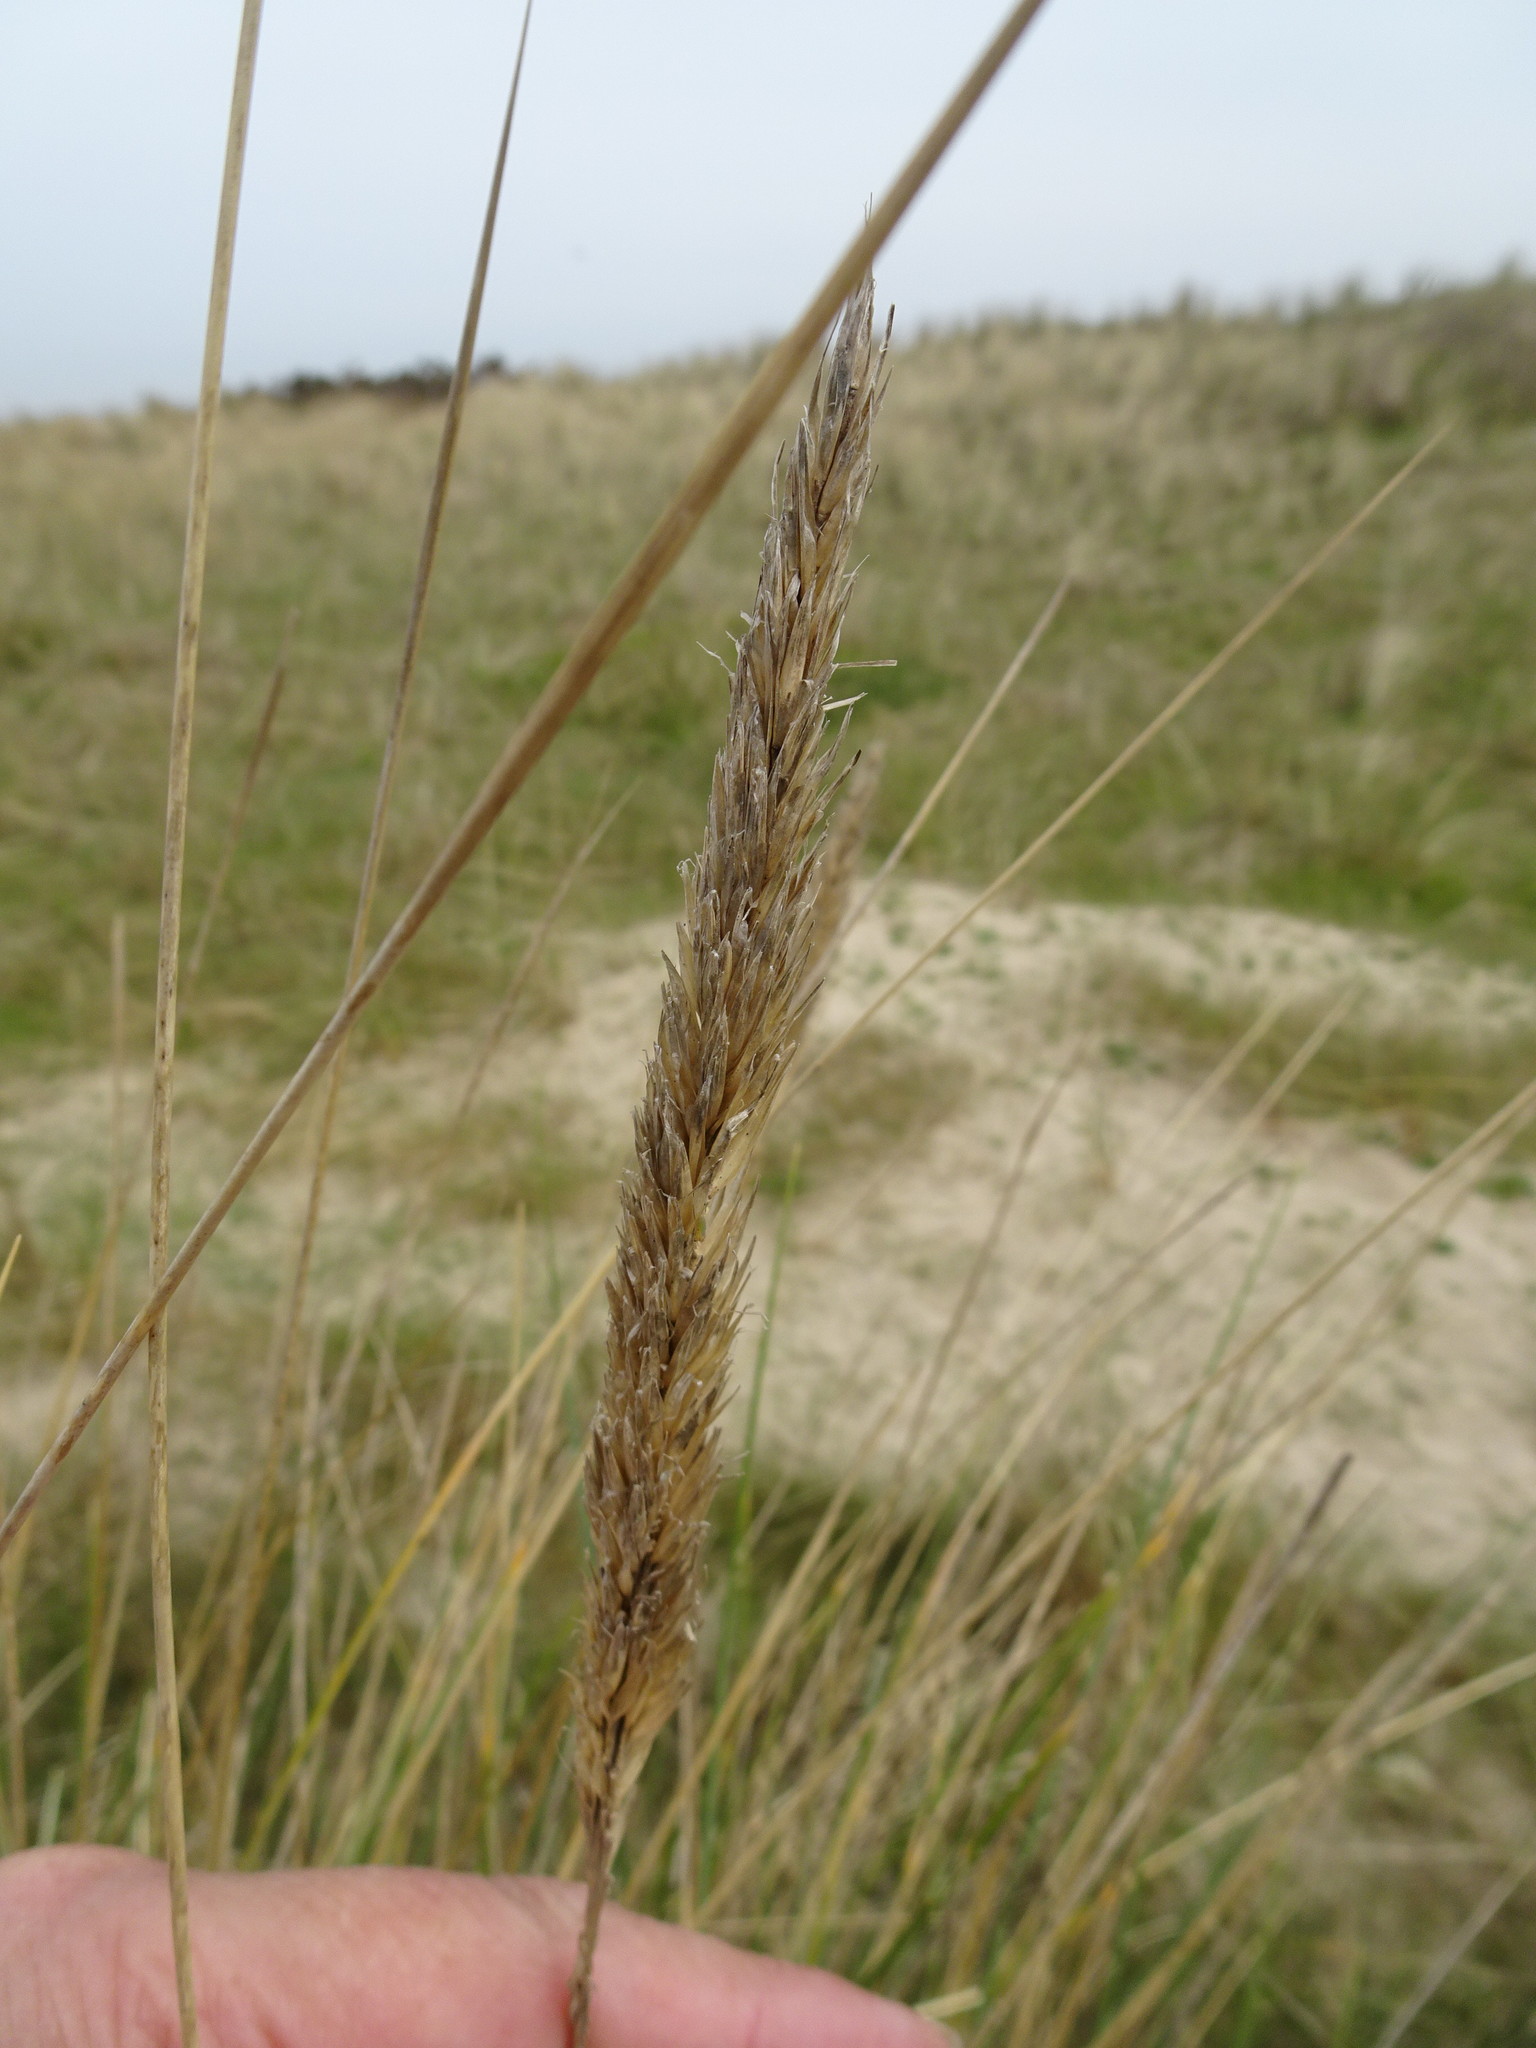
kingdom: Plantae
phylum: Tracheophyta
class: Liliopsida
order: Poales
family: Poaceae
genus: Calamagrostis
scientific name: Calamagrostis arenaria
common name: European beachgrass
